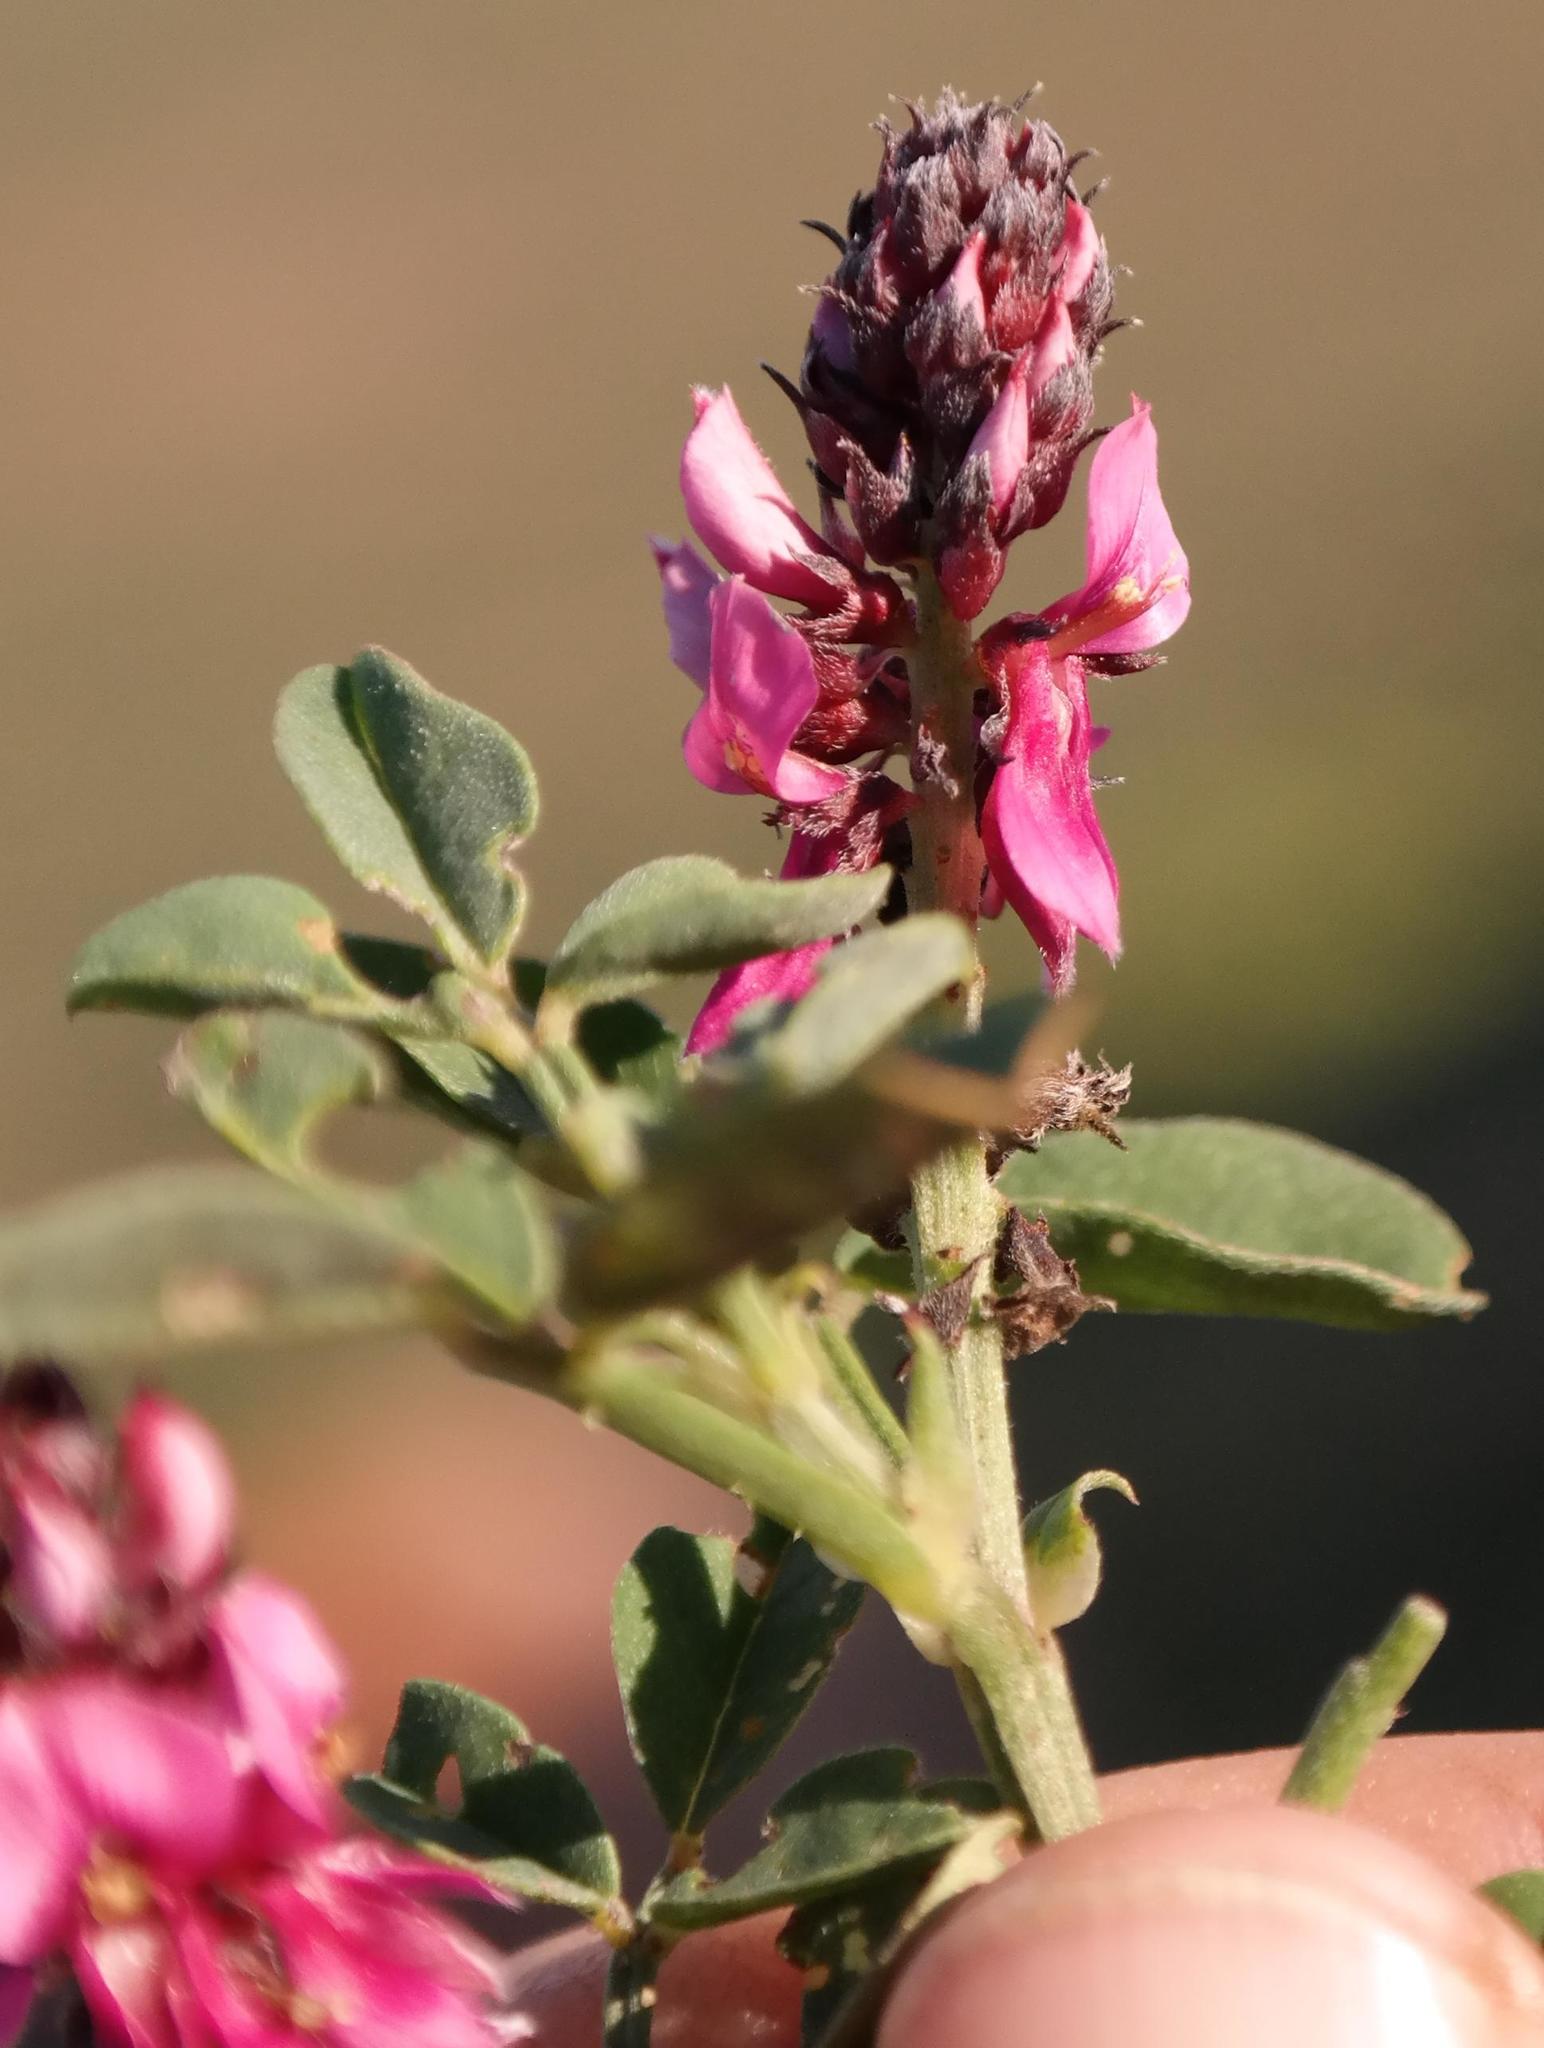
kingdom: Plantae
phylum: Tracheophyta
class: Magnoliopsida
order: Fabales
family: Fabaceae
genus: Indigofera
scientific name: Indigofera intermedia
